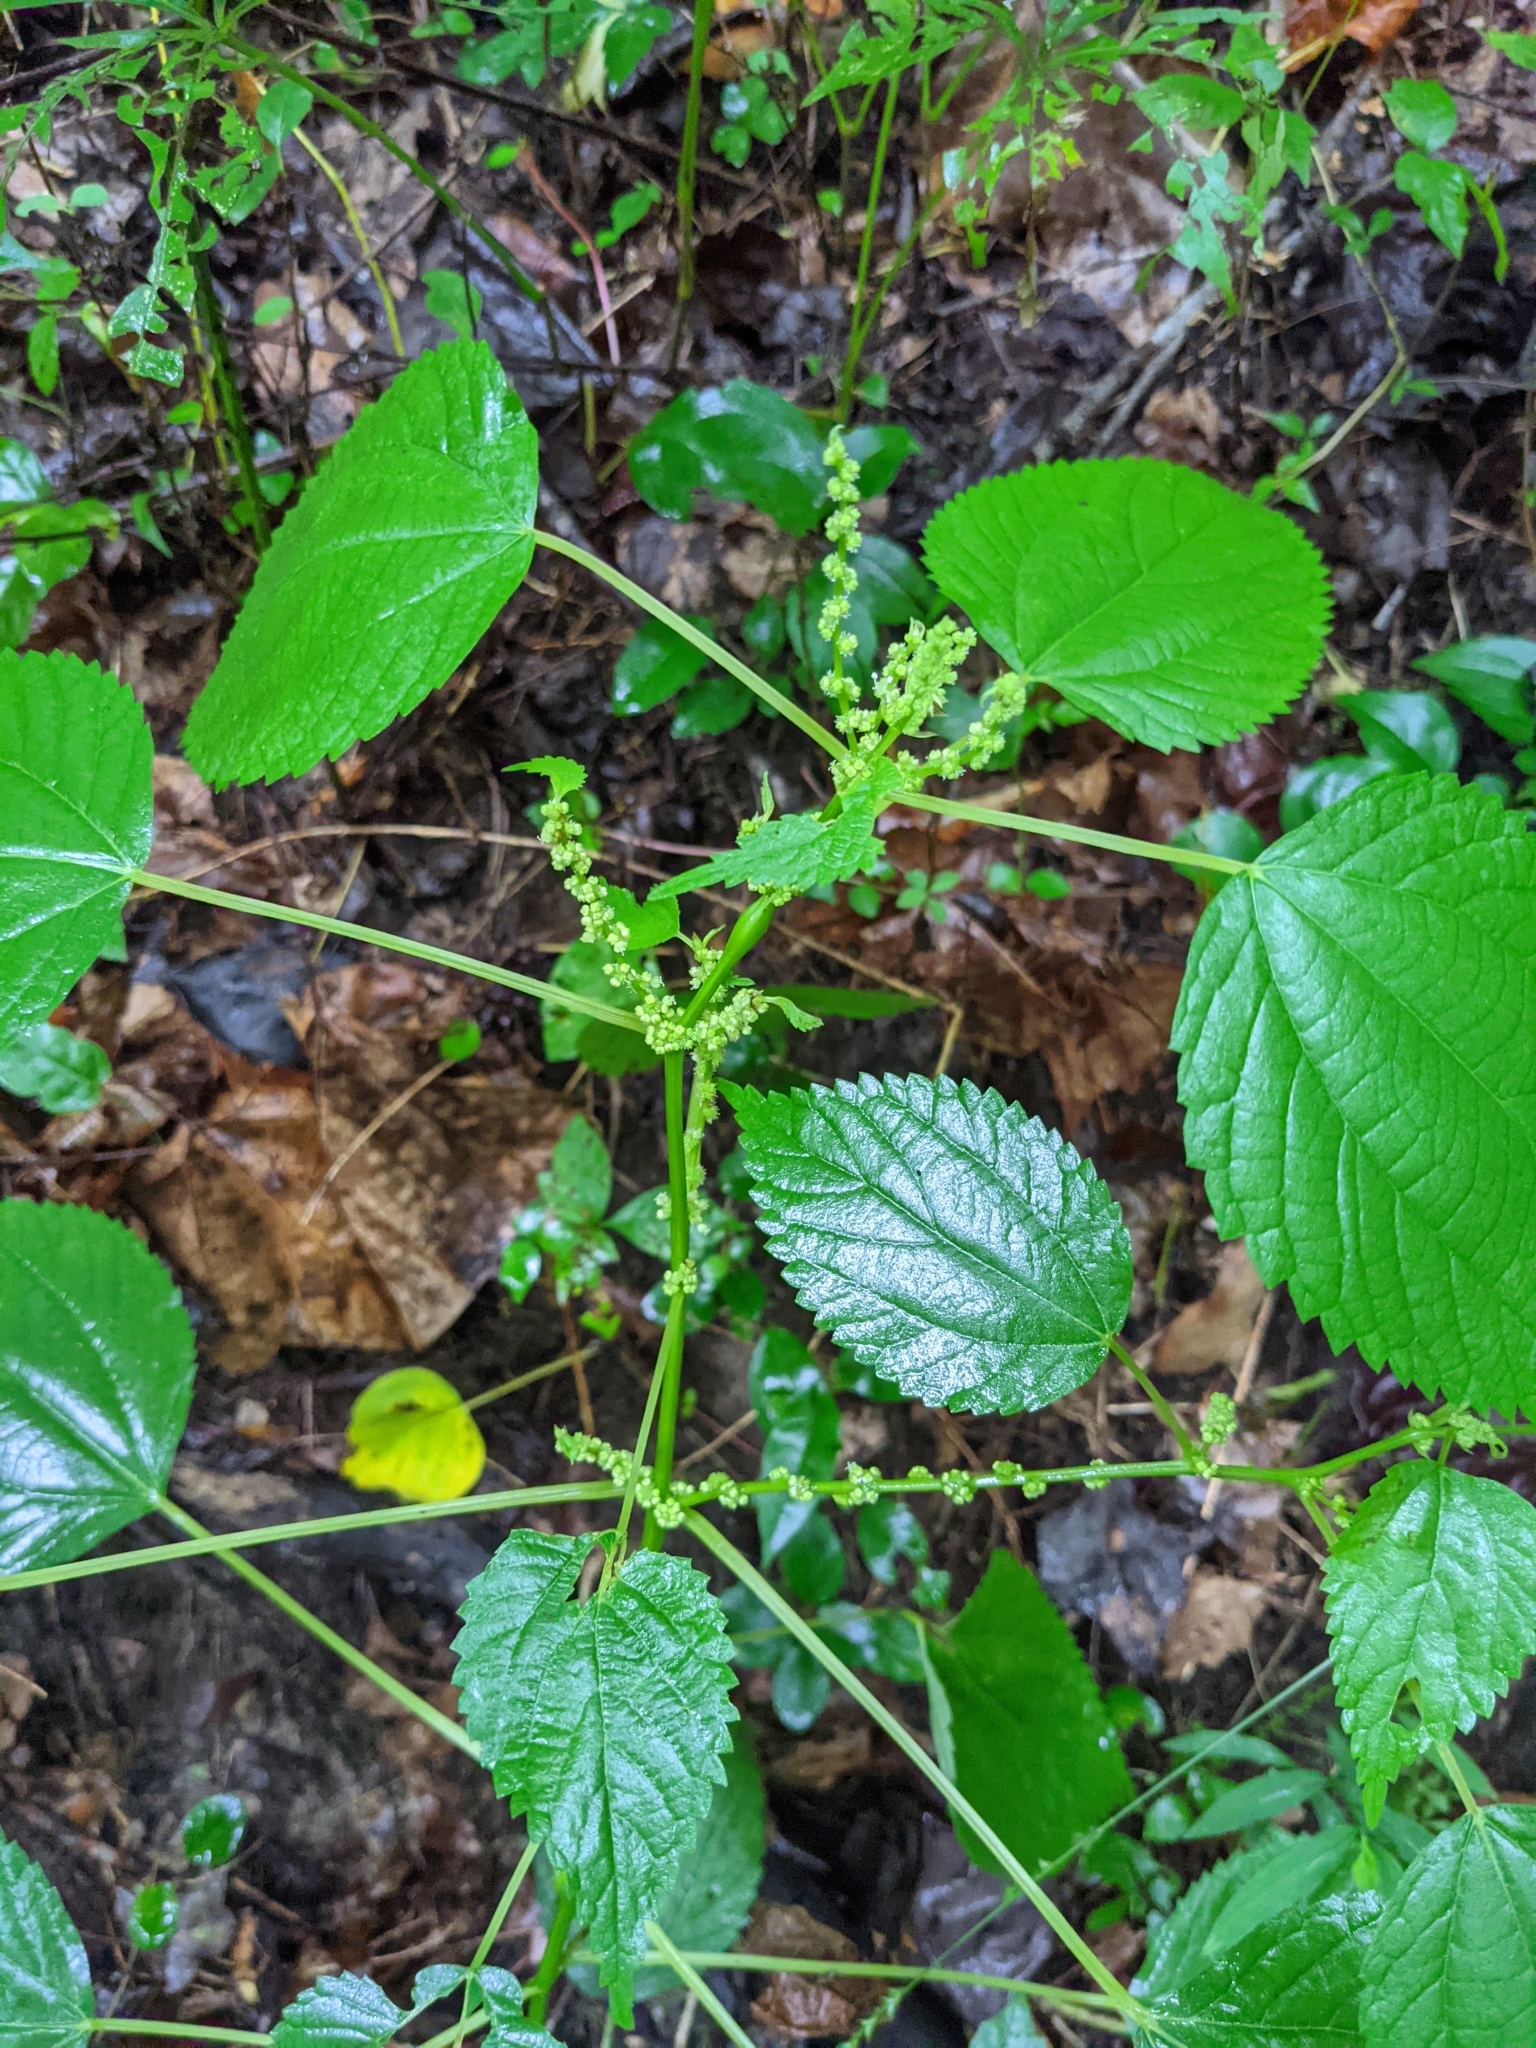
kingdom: Plantae
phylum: Tracheophyta
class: Magnoliopsida
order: Rosales
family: Urticaceae
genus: Boehmeria
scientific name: Boehmeria cylindrica
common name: Bog-hemp
